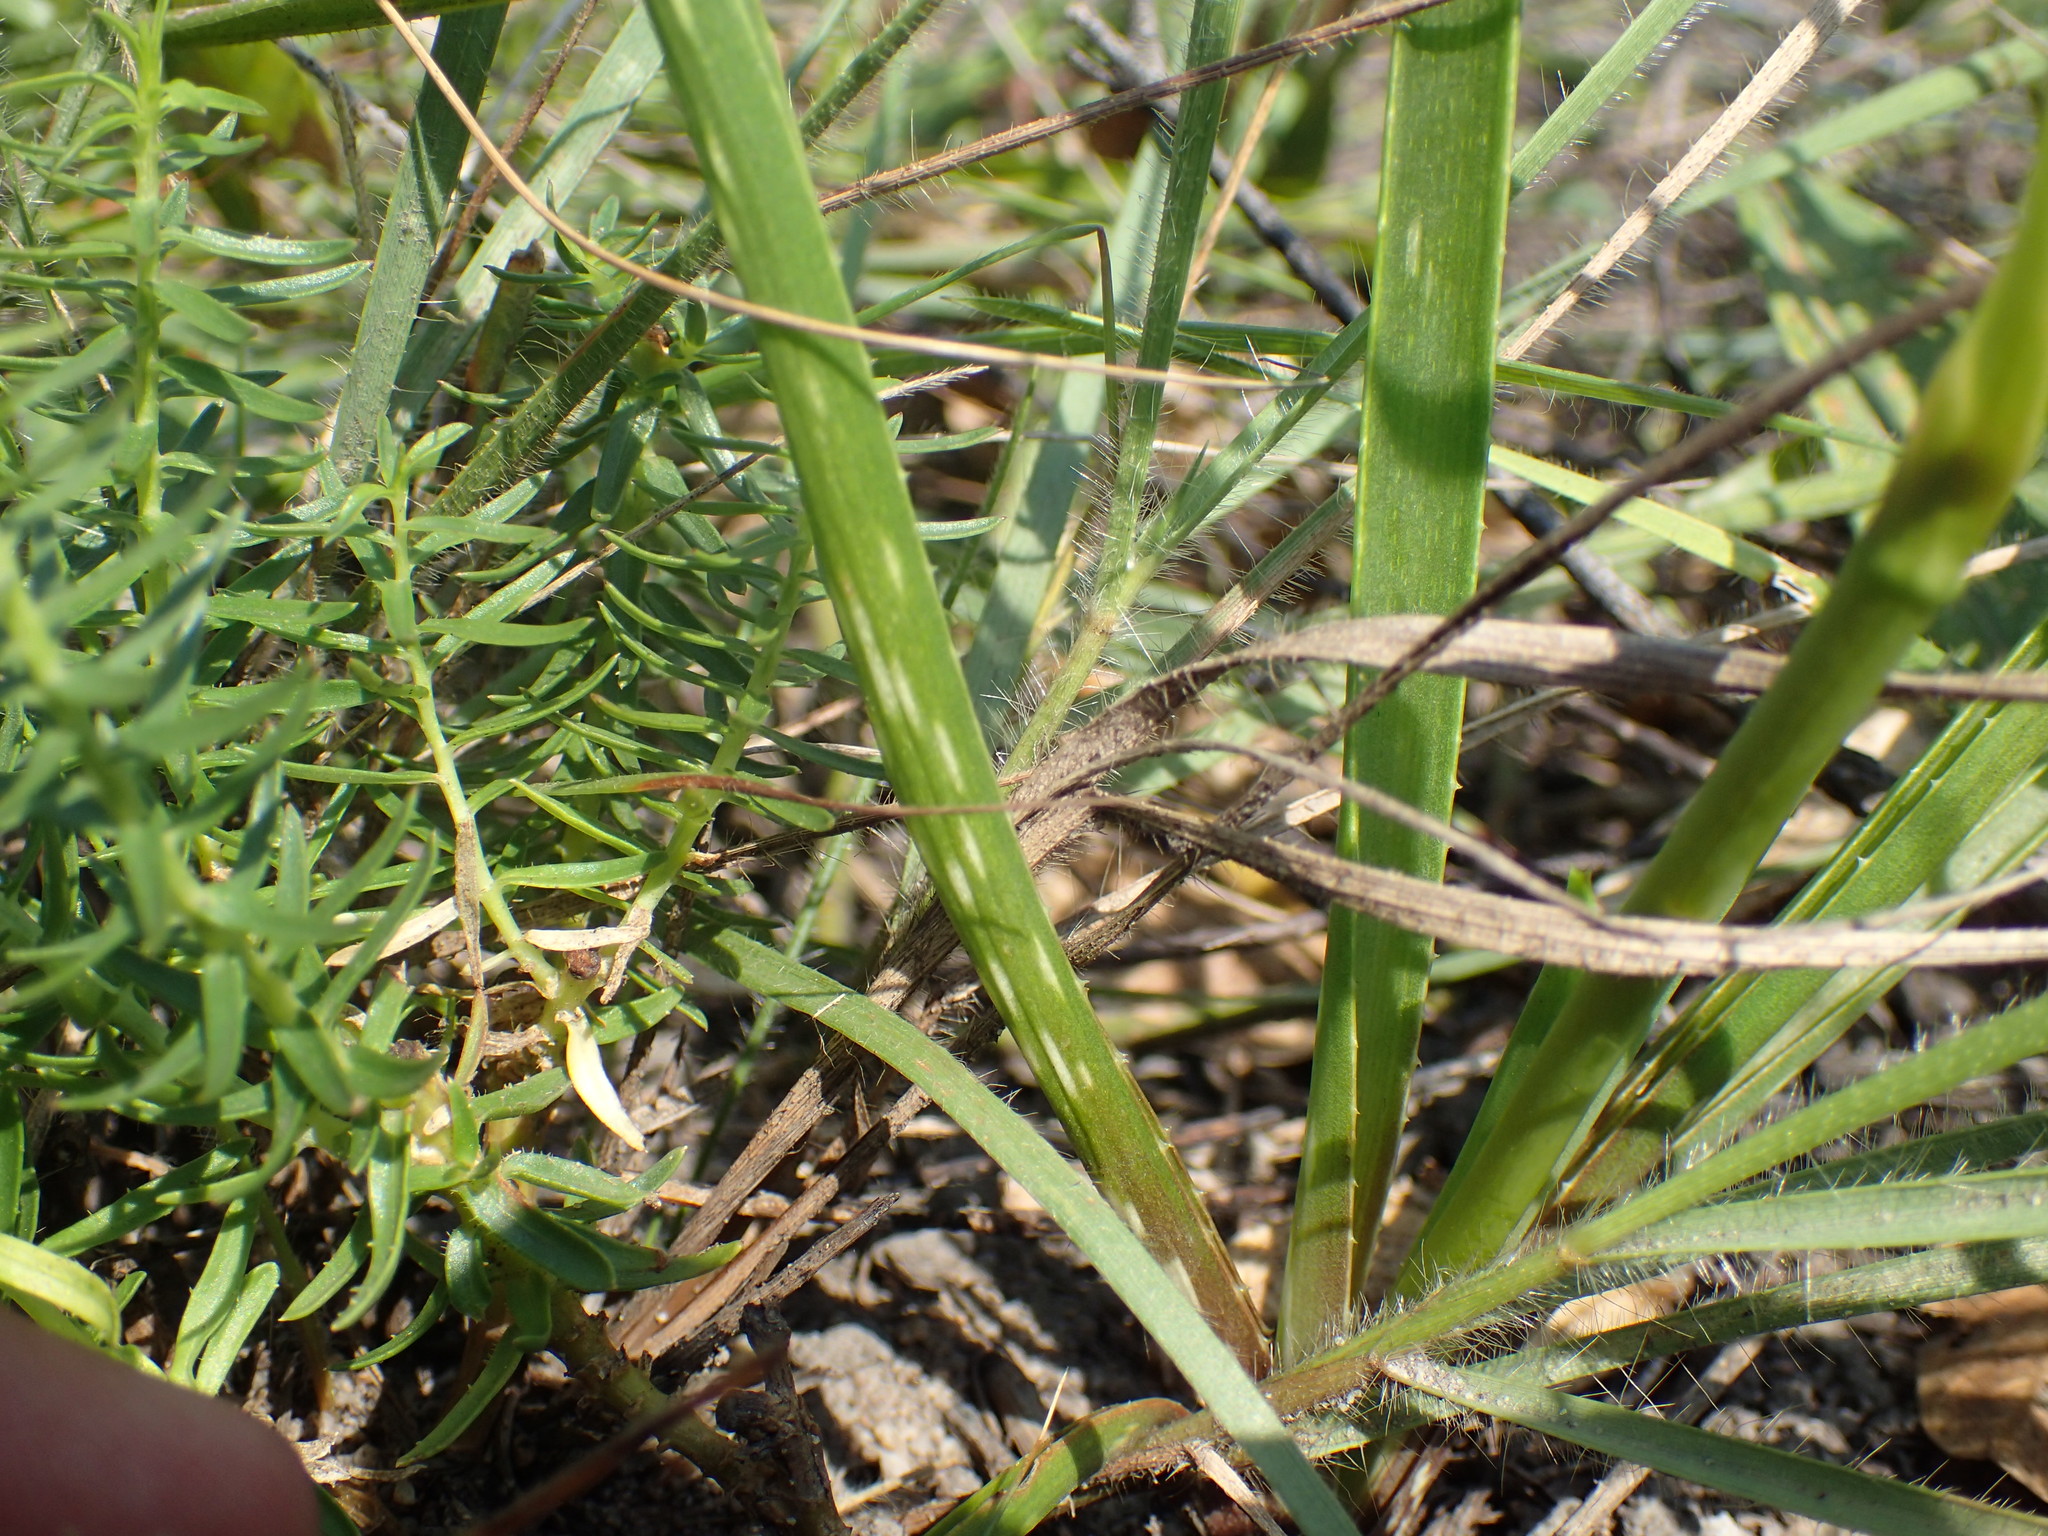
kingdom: Plantae
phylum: Tracheophyta
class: Liliopsida
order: Asparagales
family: Asphodelaceae
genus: Aloe
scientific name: Aloe linearifolia
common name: Dwarf yellow grass aloe
